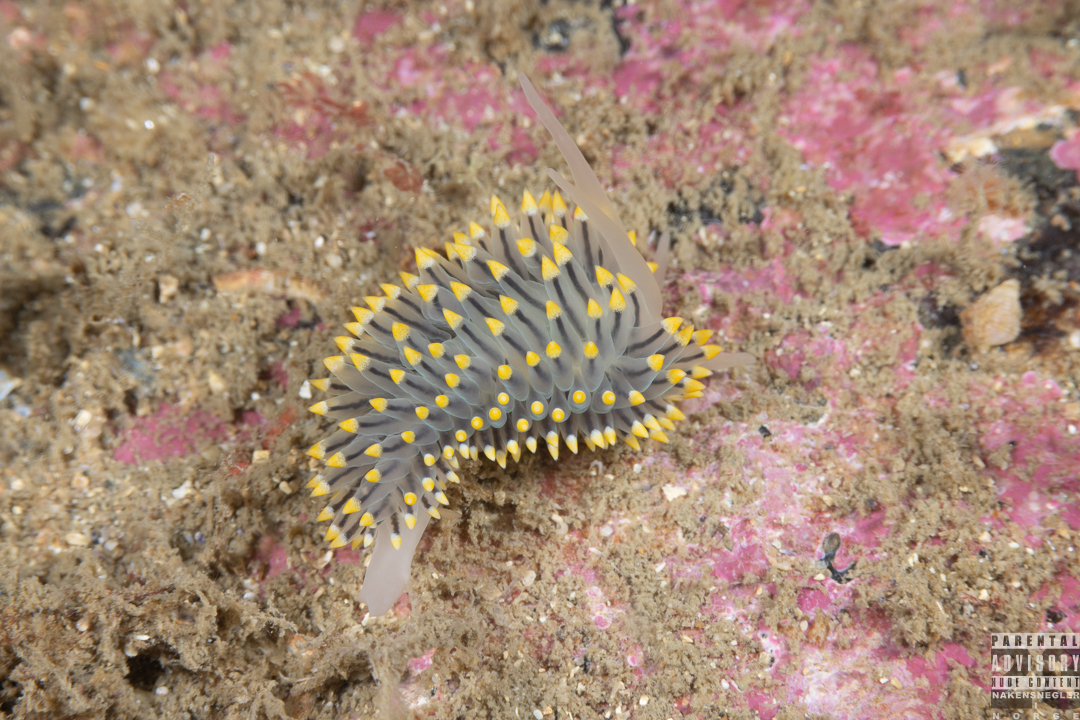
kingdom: Animalia
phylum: Mollusca
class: Gastropoda
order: Nudibranchia
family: Eubranchidae
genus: Eubranchus
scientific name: Eubranchus tricolor
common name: Painted balloon aeolis
